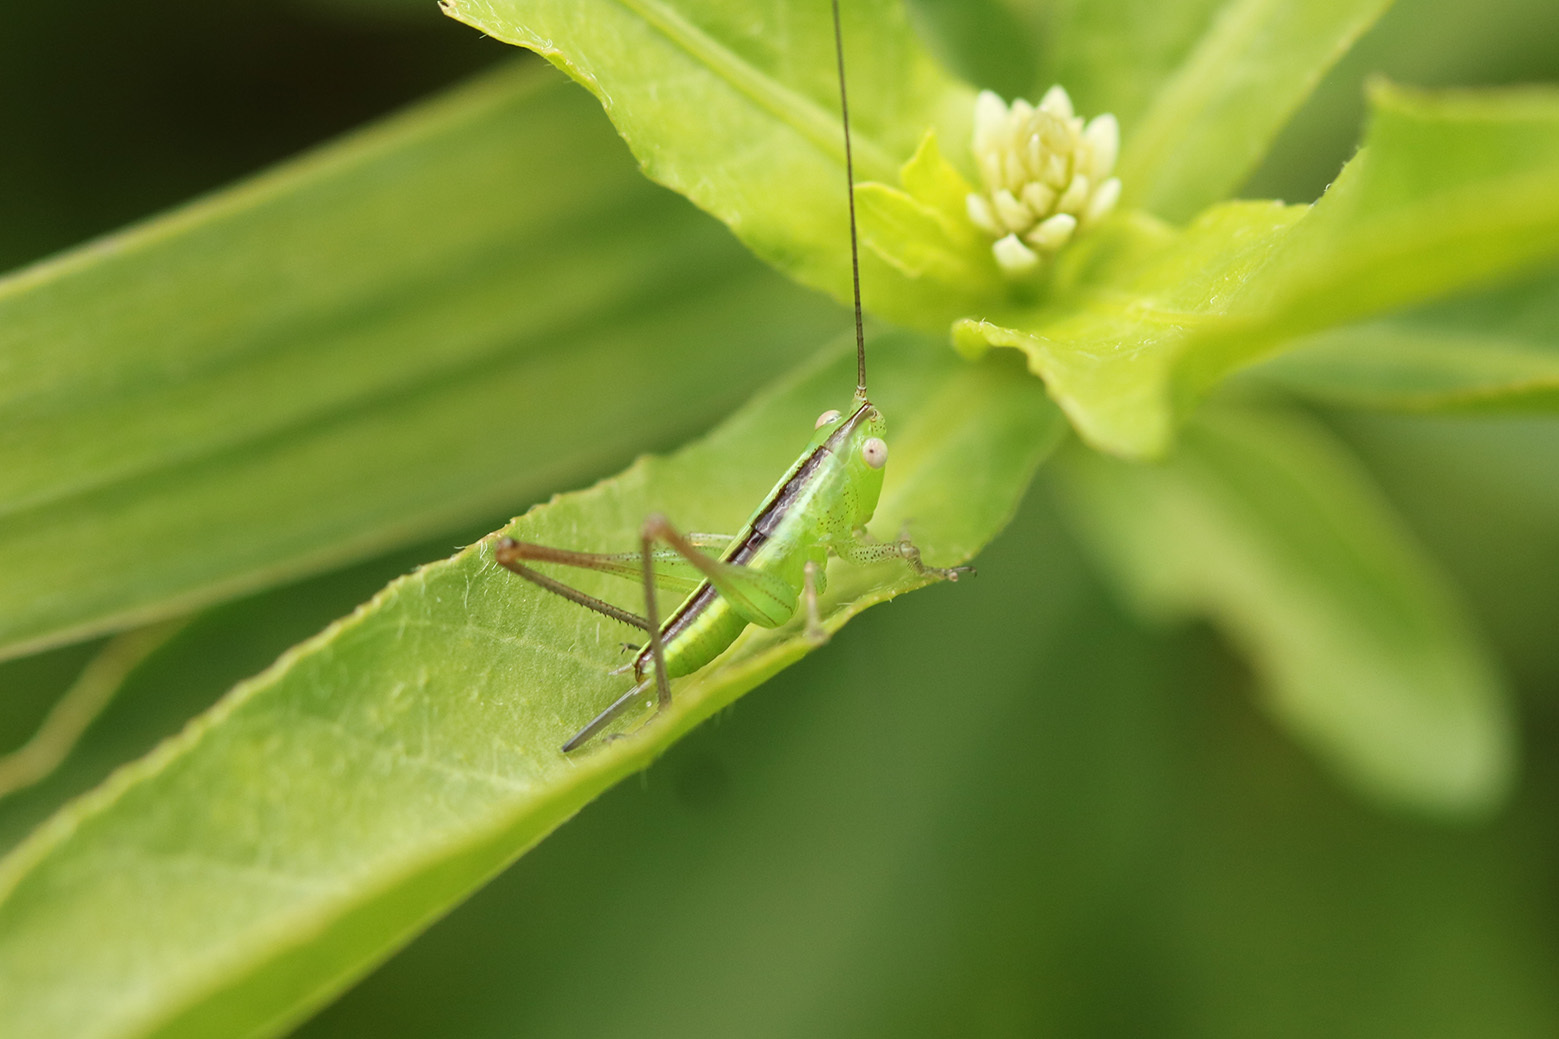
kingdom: Animalia
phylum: Arthropoda
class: Insecta
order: Orthoptera
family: Tettigoniidae
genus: Conocephalus
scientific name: Conocephalus longipes
